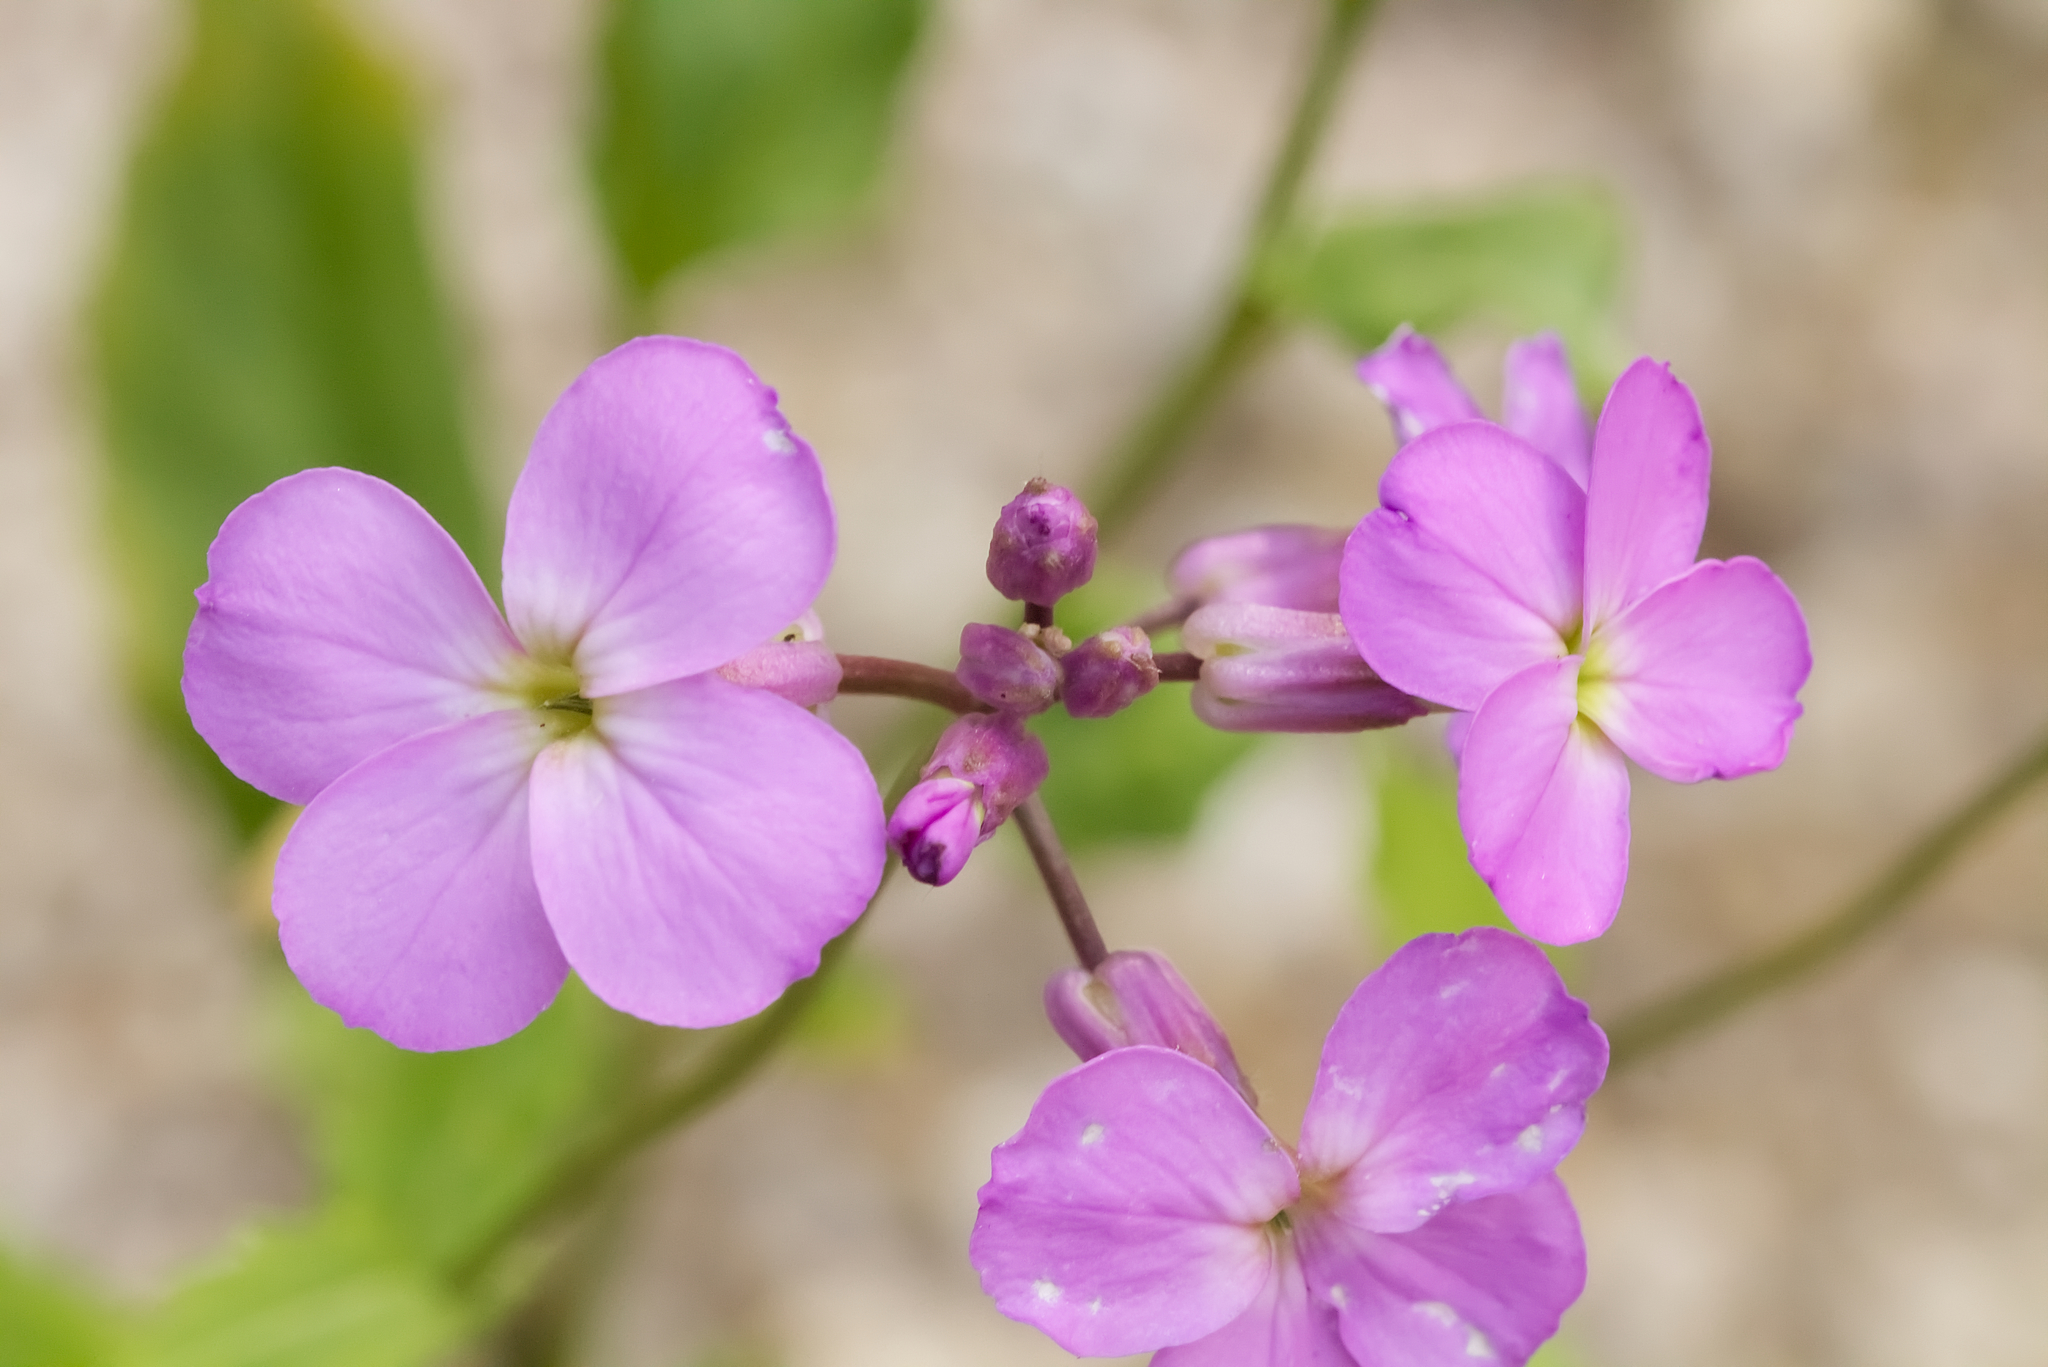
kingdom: Plantae
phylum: Tracheophyta
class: Magnoliopsida
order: Brassicales
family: Brassicaceae
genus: Hesperis
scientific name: Hesperis matronalis
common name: Dame's-violet
